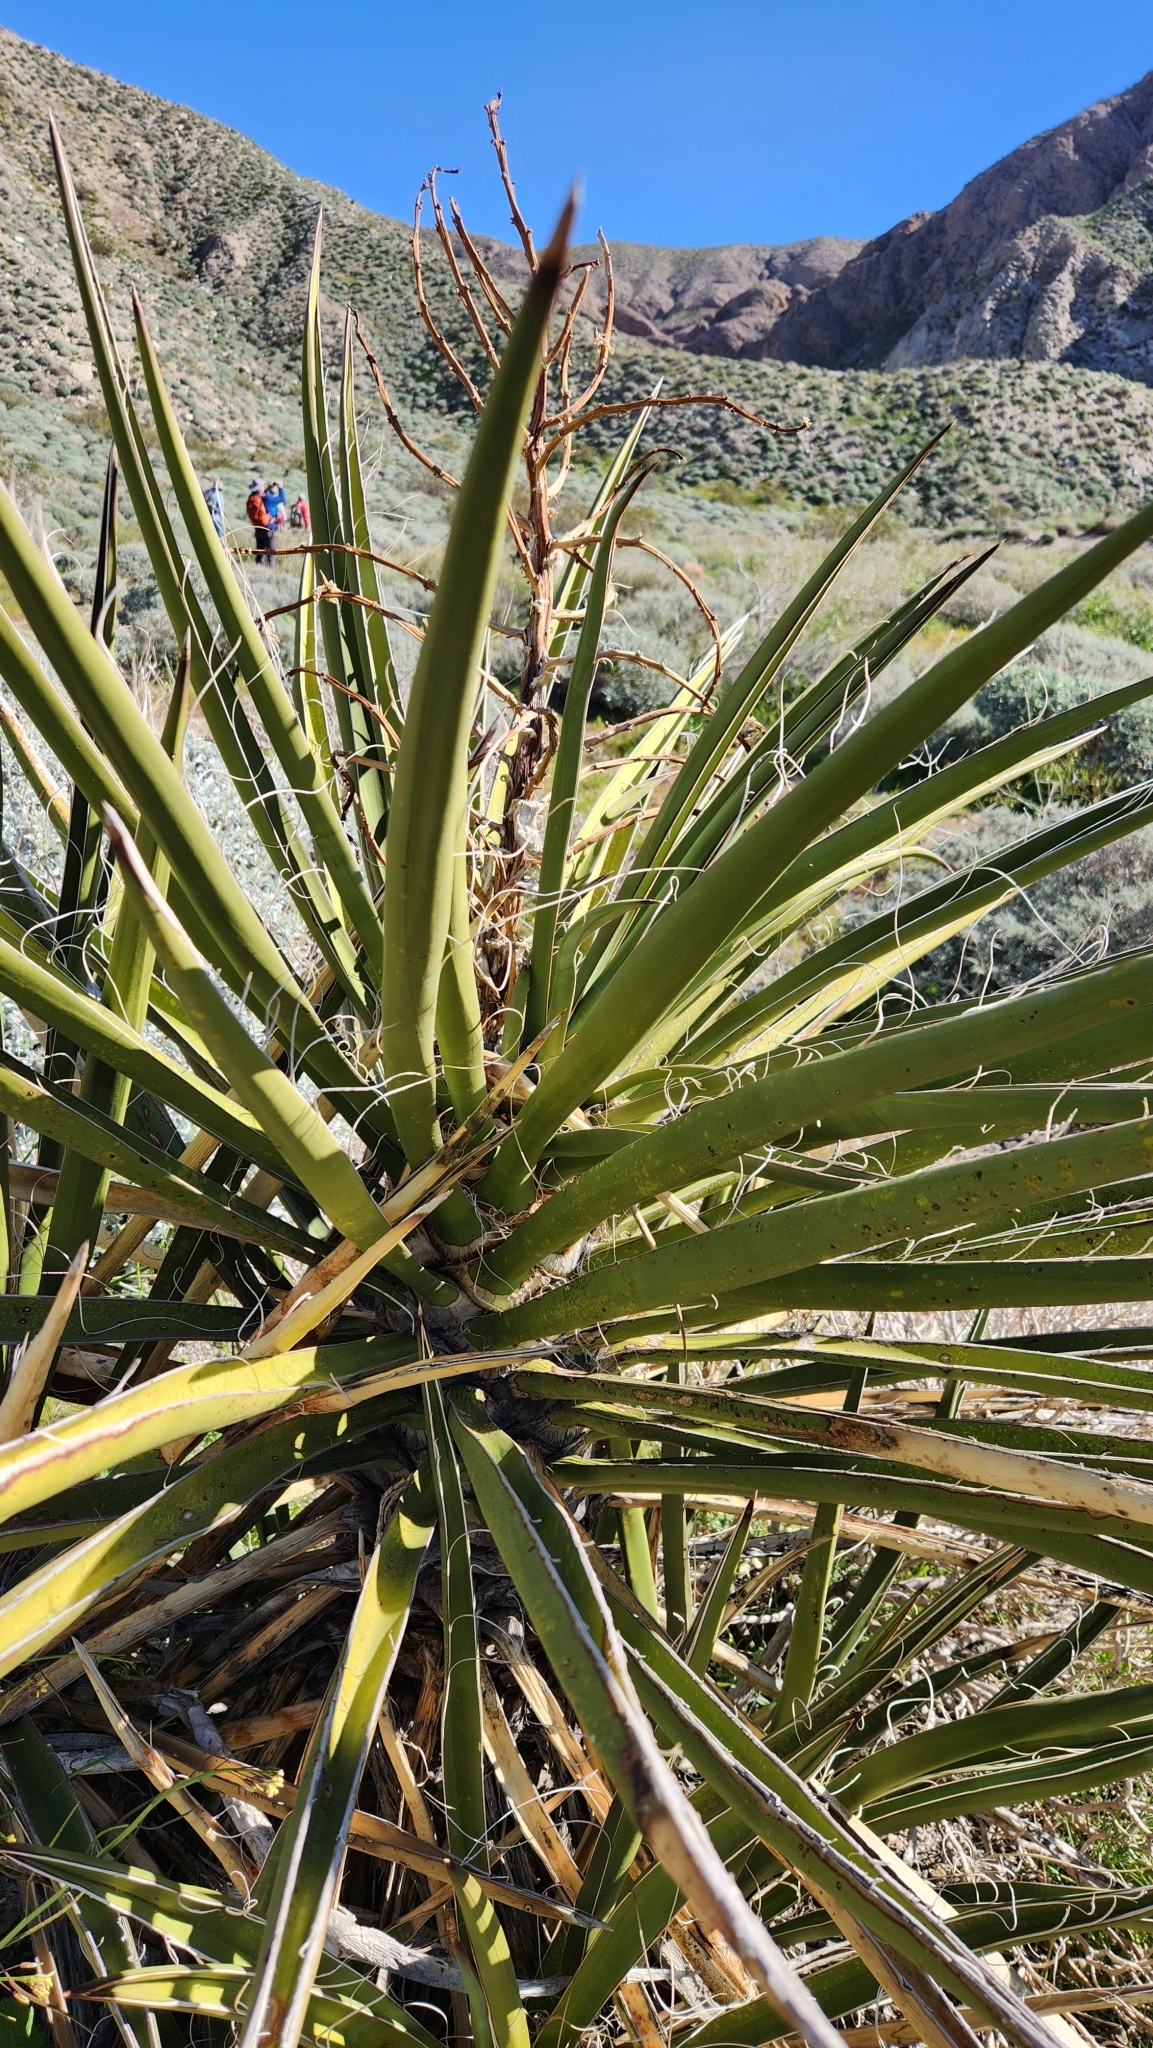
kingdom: Plantae
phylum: Tracheophyta
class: Liliopsida
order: Asparagales
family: Asparagaceae
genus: Yucca
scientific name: Yucca schidigera
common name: Mojave yucca
